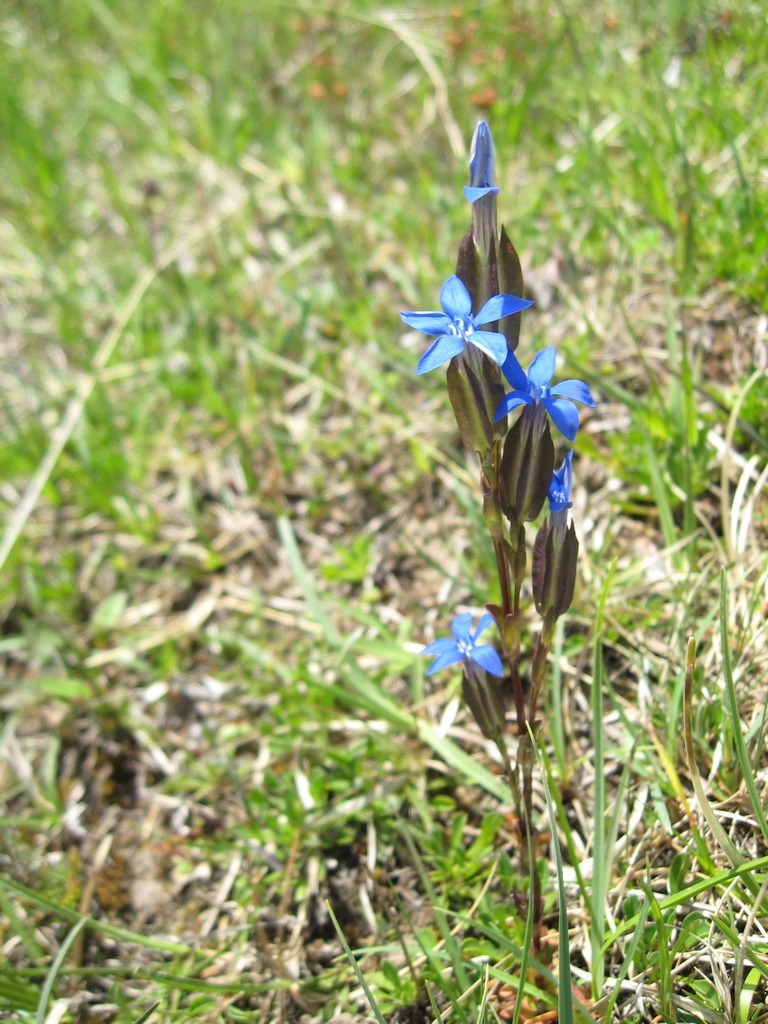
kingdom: Plantae
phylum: Tracheophyta
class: Magnoliopsida
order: Gentianales
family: Gentianaceae
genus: Gentiana
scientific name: Gentiana utriculosa
